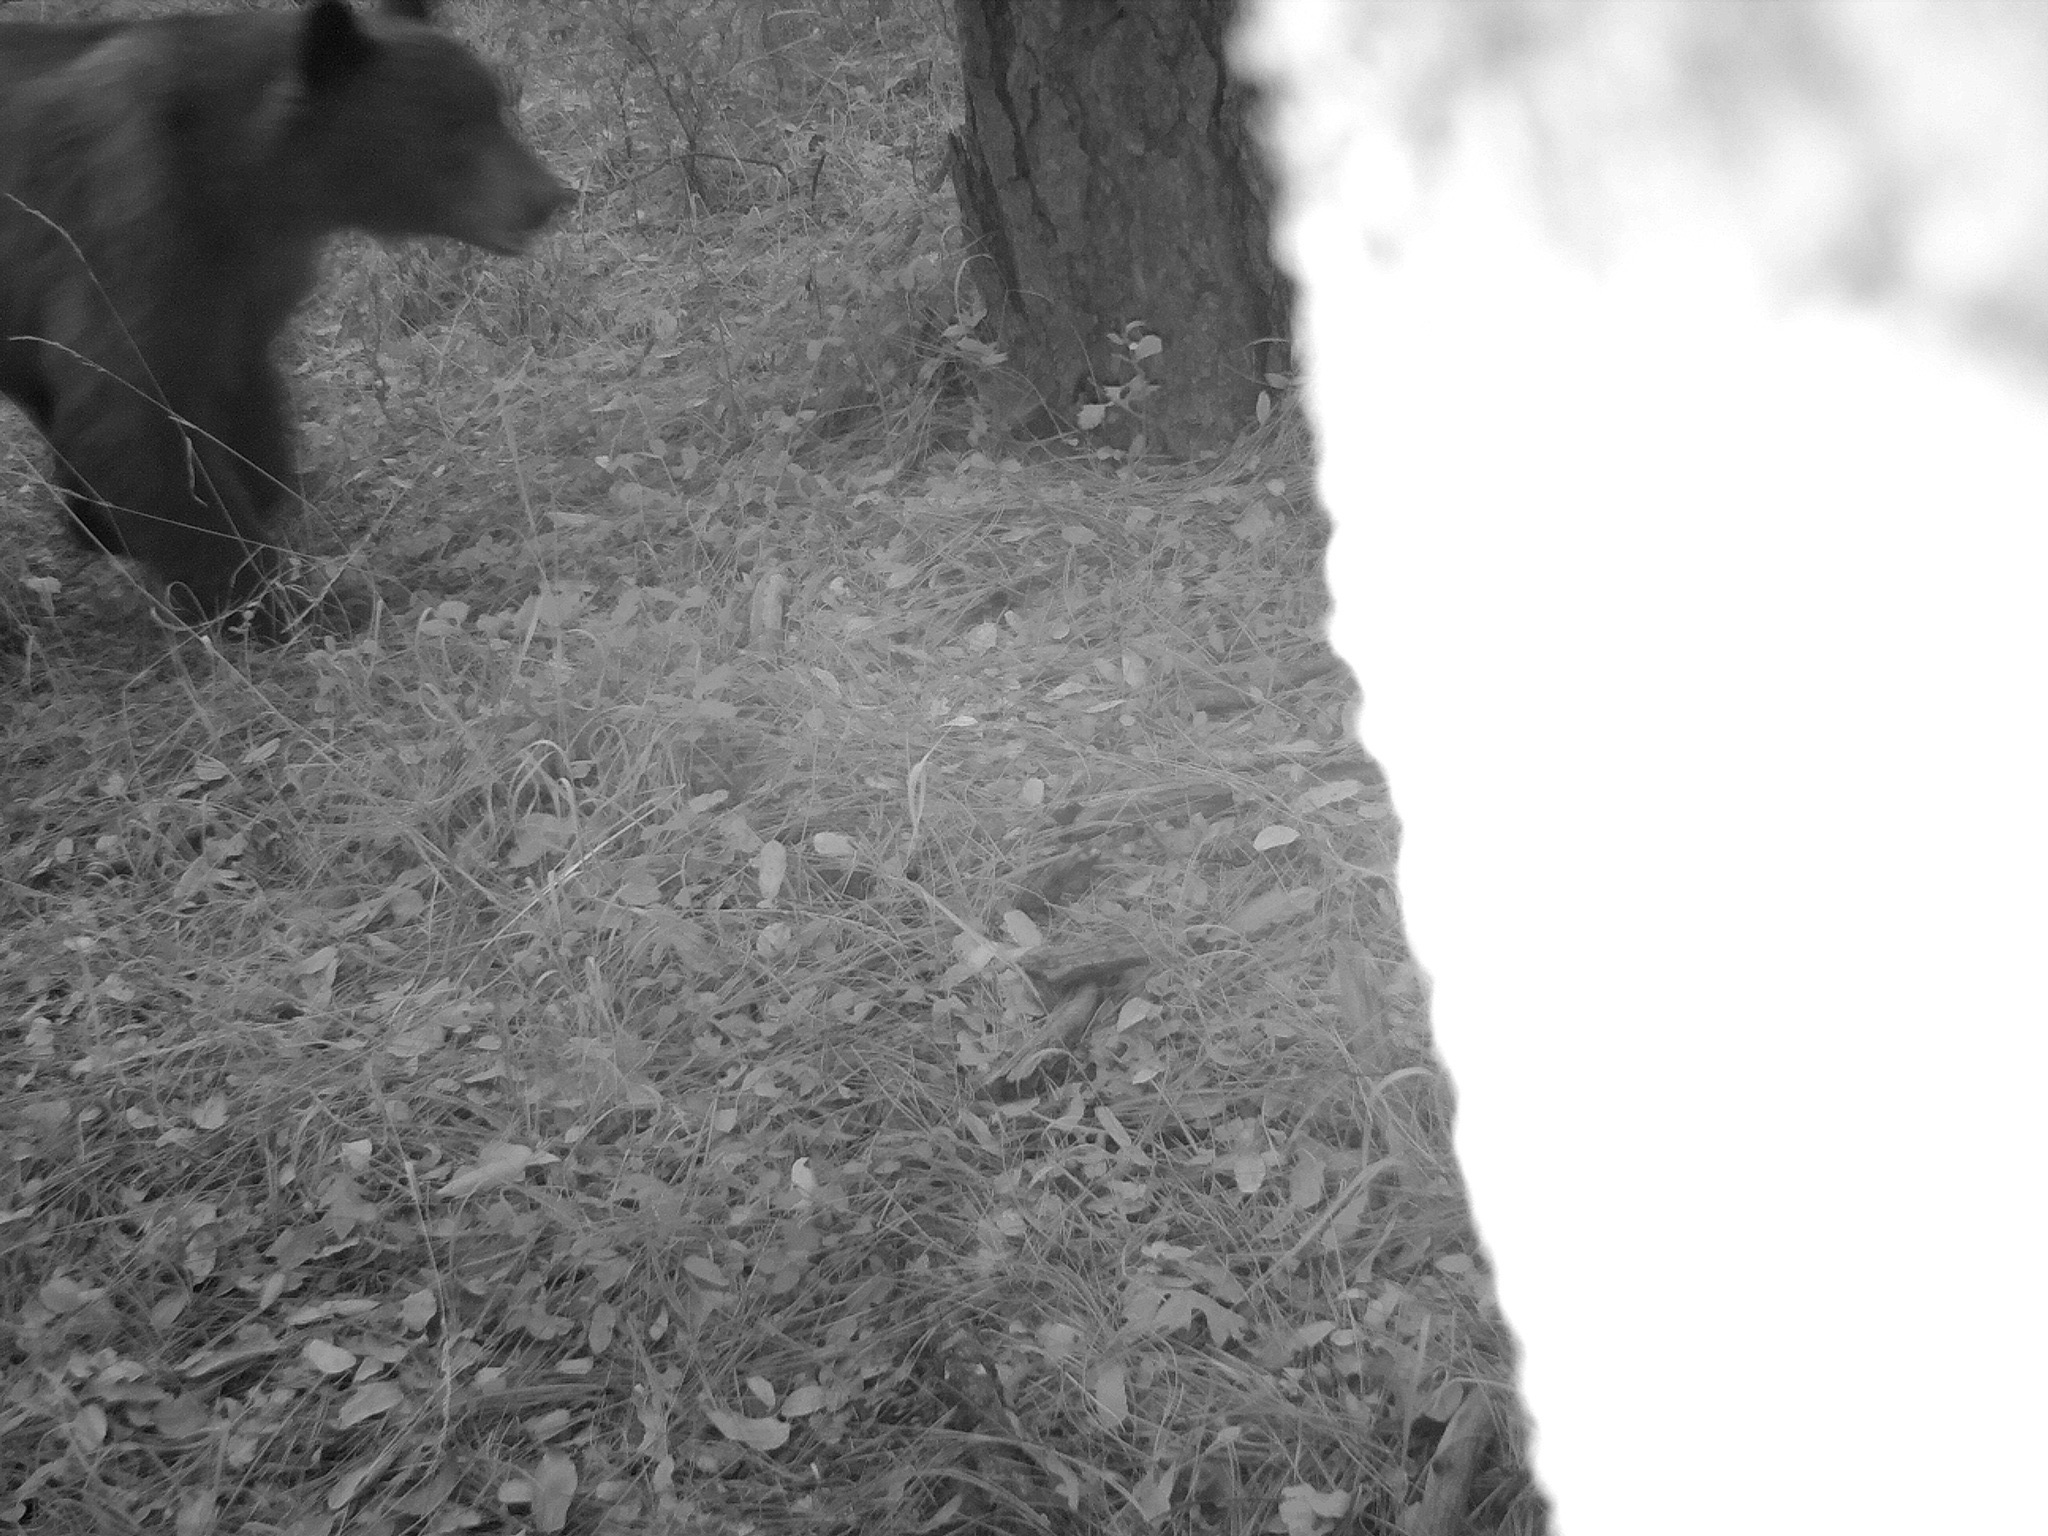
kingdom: Animalia
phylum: Chordata
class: Mammalia
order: Carnivora
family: Ursidae
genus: Ursus
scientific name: Ursus americanus
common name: American black bear
